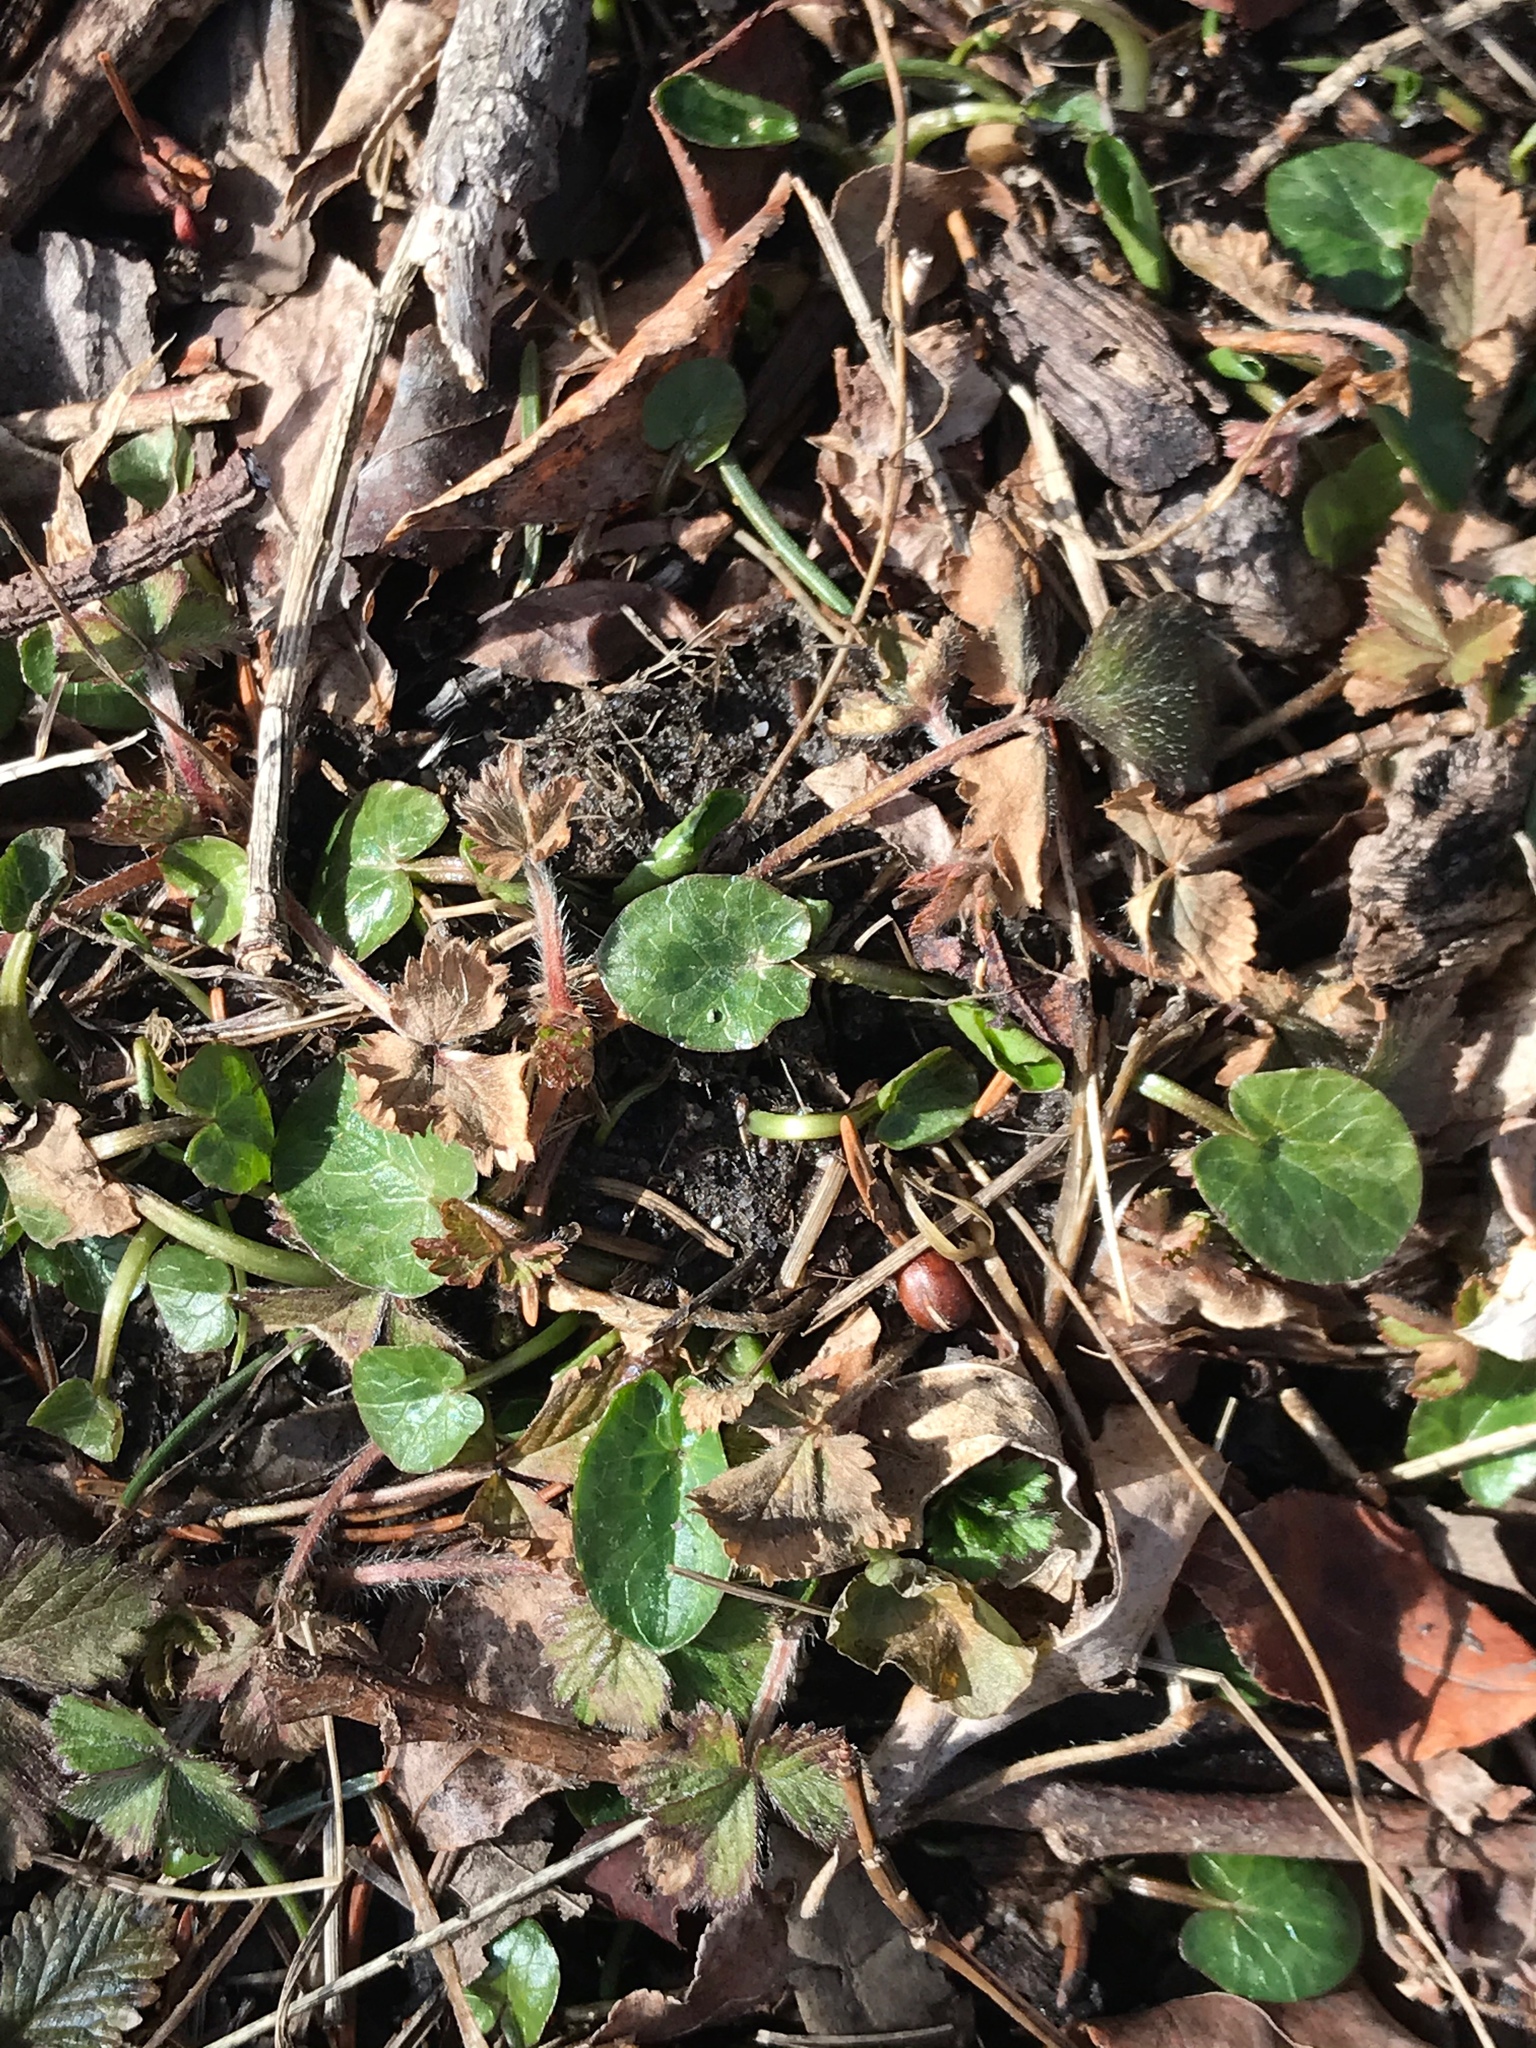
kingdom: Plantae
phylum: Tracheophyta
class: Magnoliopsida
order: Ranunculales
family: Ranunculaceae
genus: Ficaria
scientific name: Ficaria verna
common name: Lesser celandine
